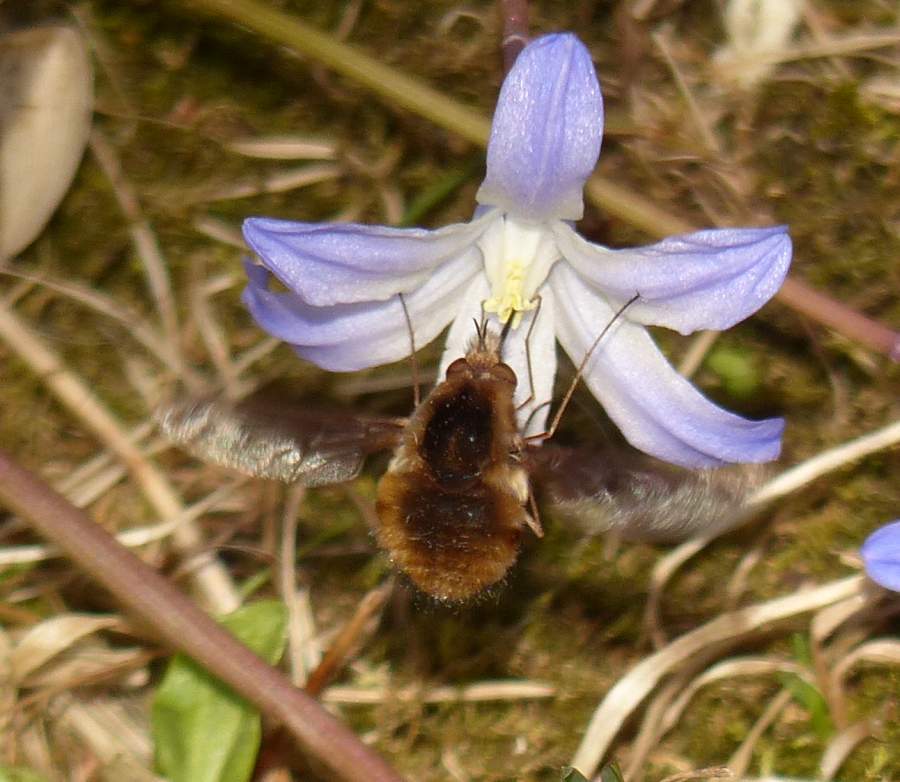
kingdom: Animalia
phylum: Arthropoda
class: Insecta
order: Diptera
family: Bombyliidae
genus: Bombylius
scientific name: Bombylius major
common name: Bee fly
